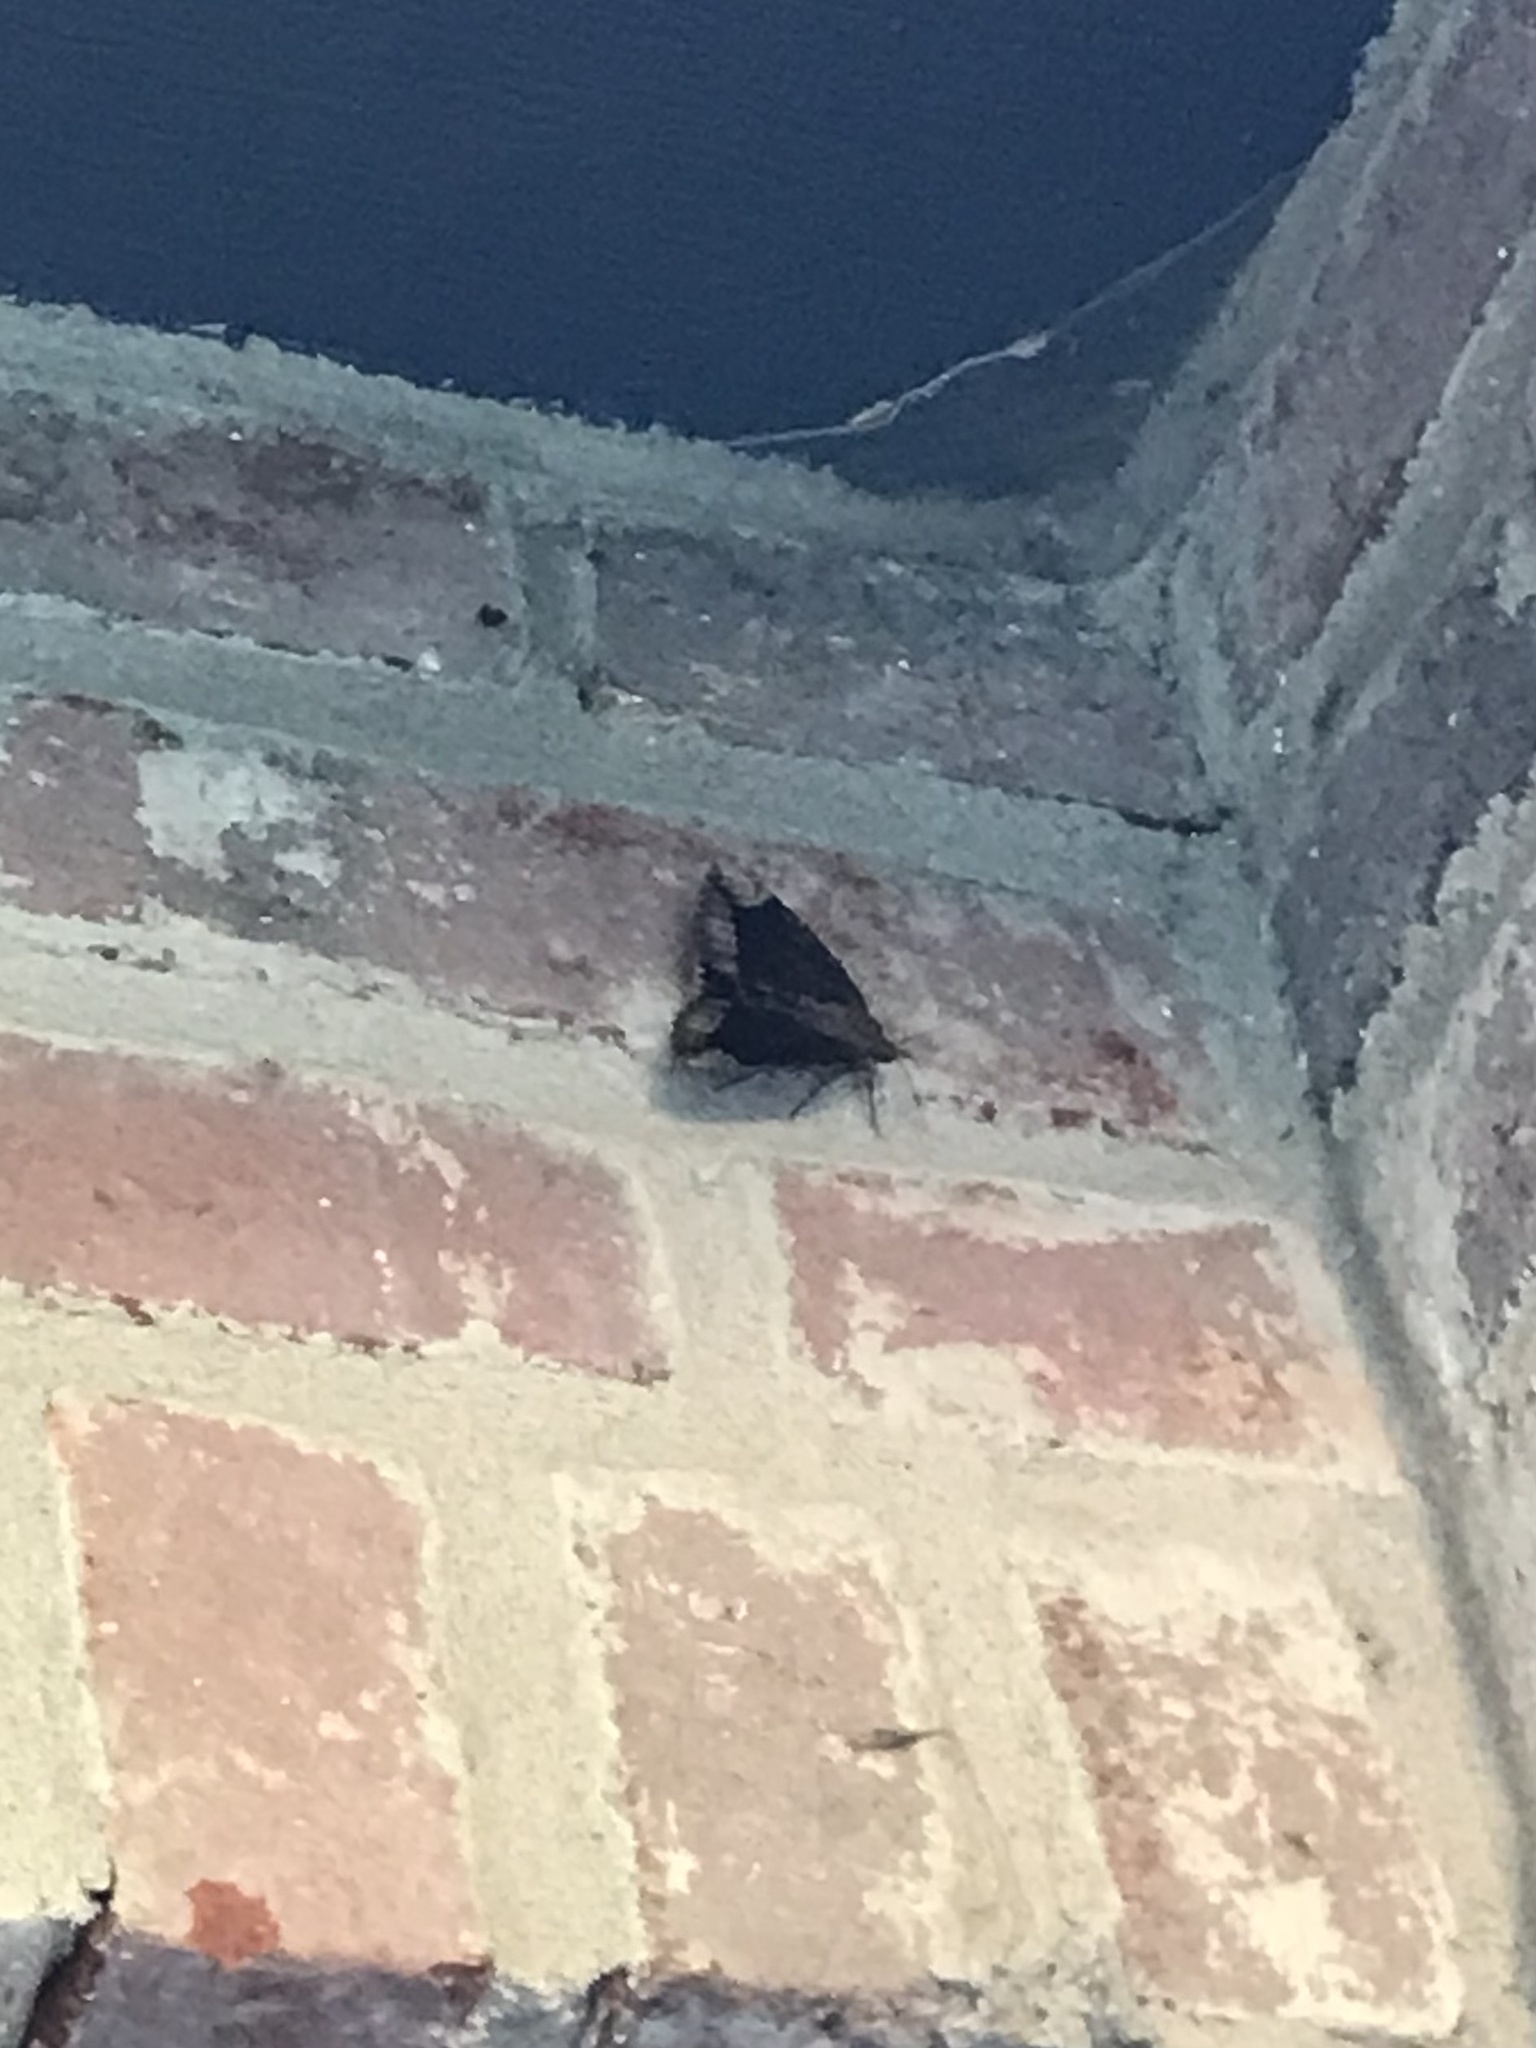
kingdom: Animalia
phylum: Arthropoda
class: Insecta
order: Lepidoptera
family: Erebidae
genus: Catocala
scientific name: Catocala innubens
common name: Betrothed underwing
